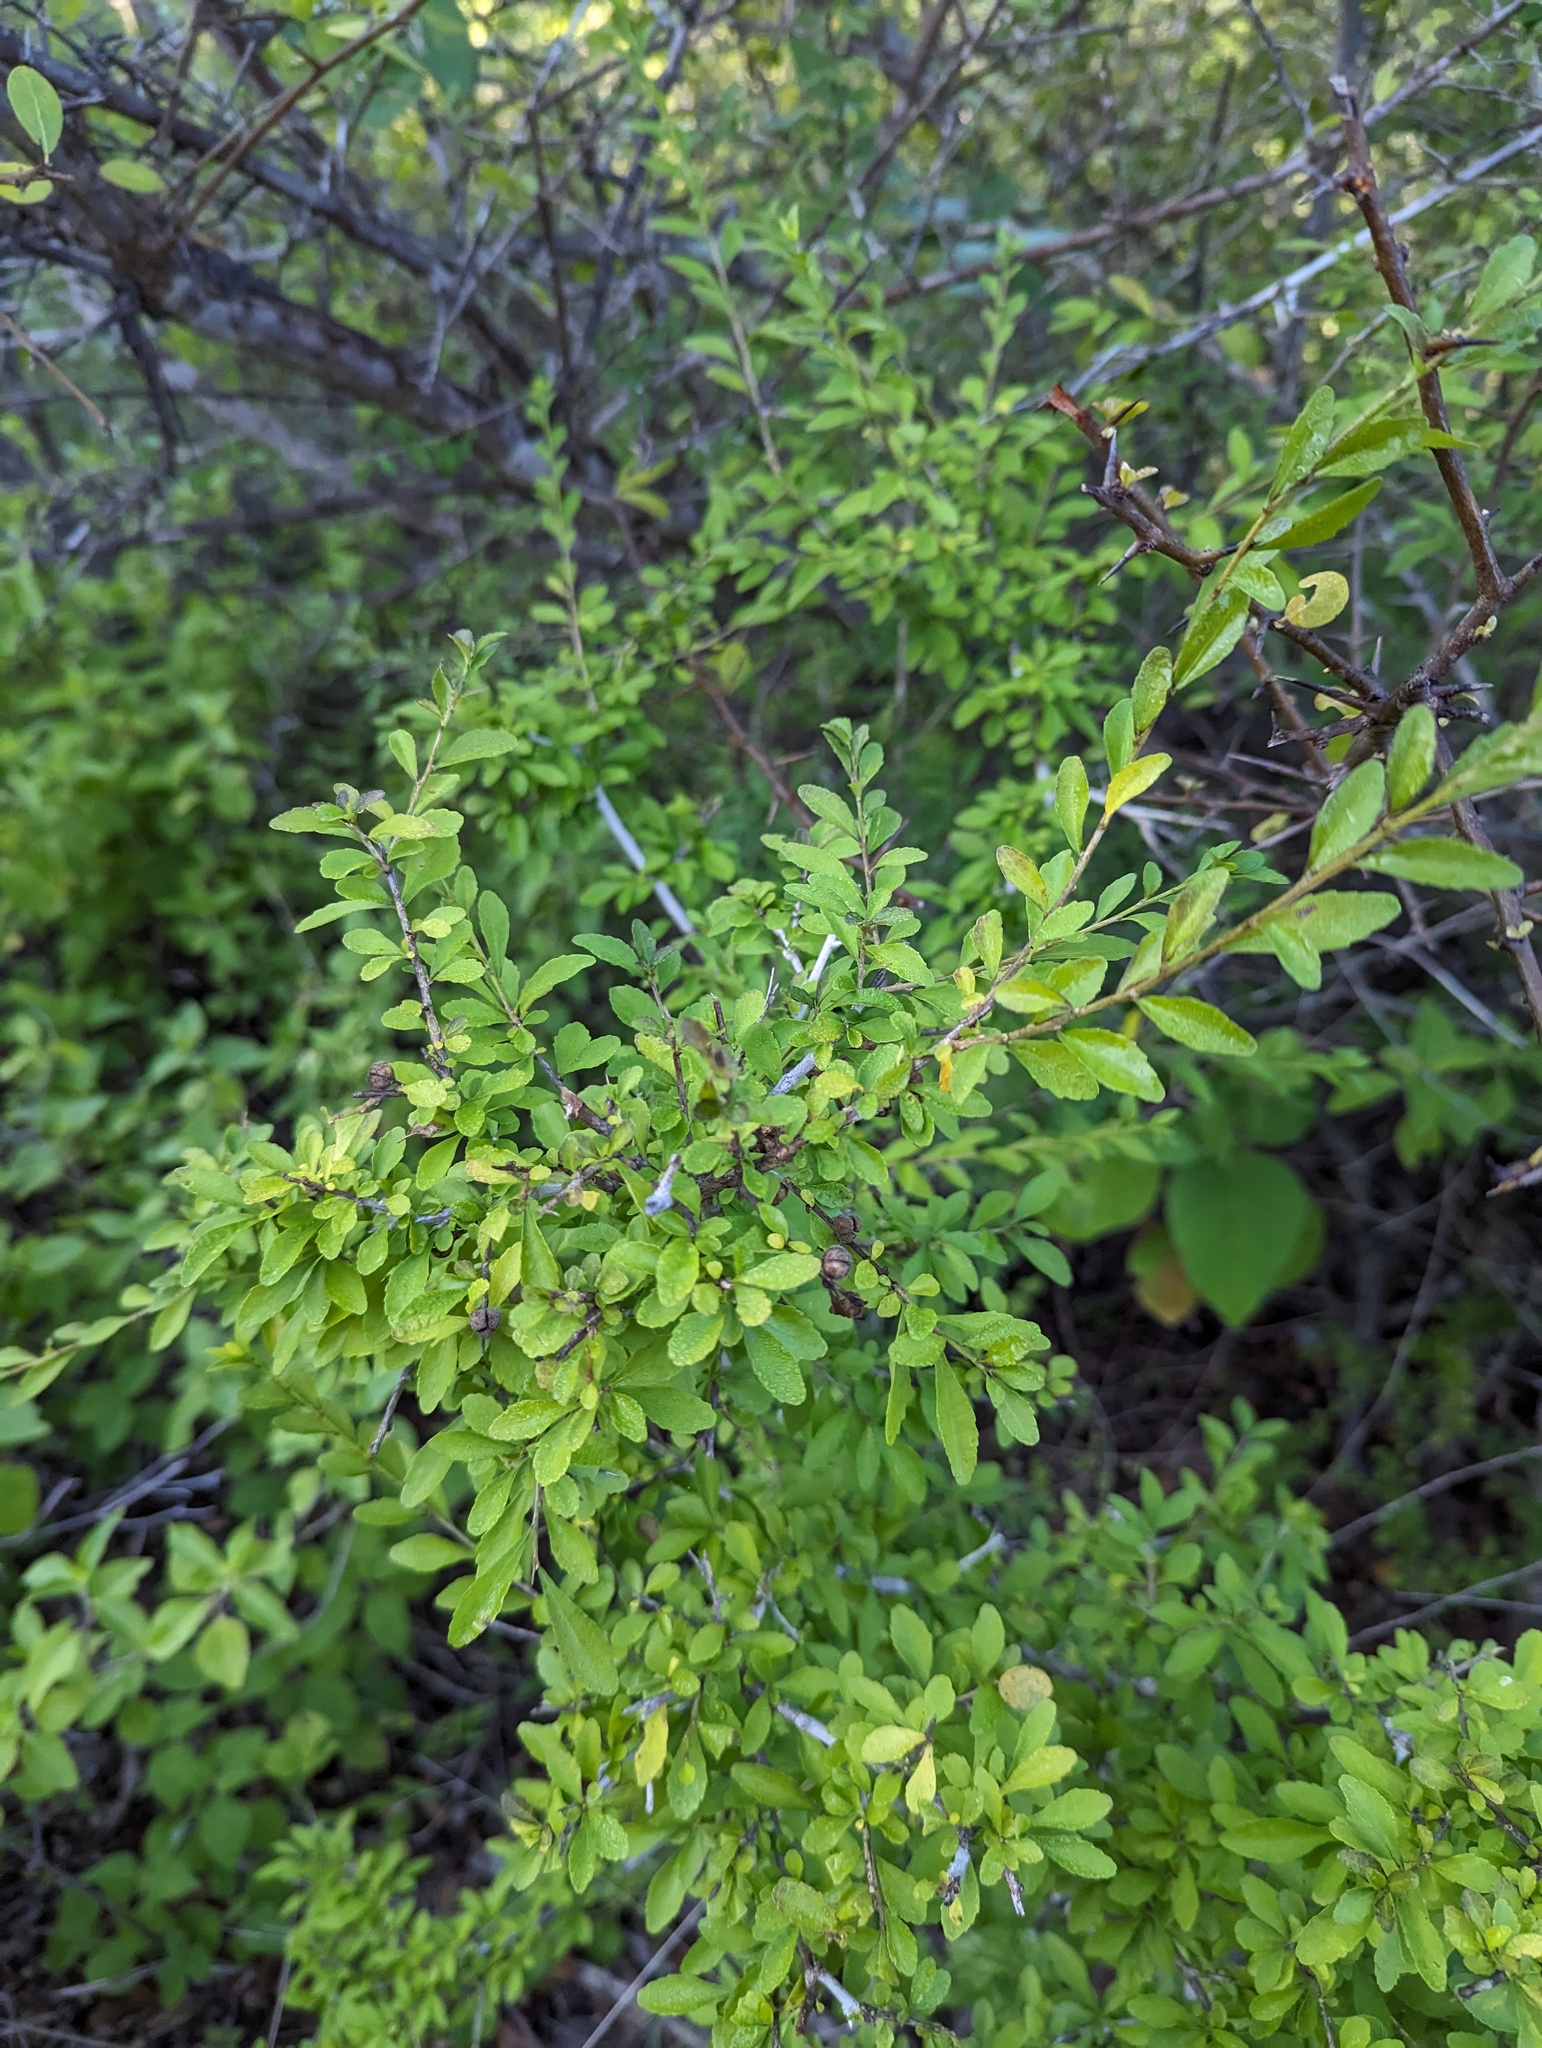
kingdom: Plantae
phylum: Tracheophyta
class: Magnoliopsida
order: Malpighiales
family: Violaceae
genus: Ixchelia
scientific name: Ixchelia mexicana
